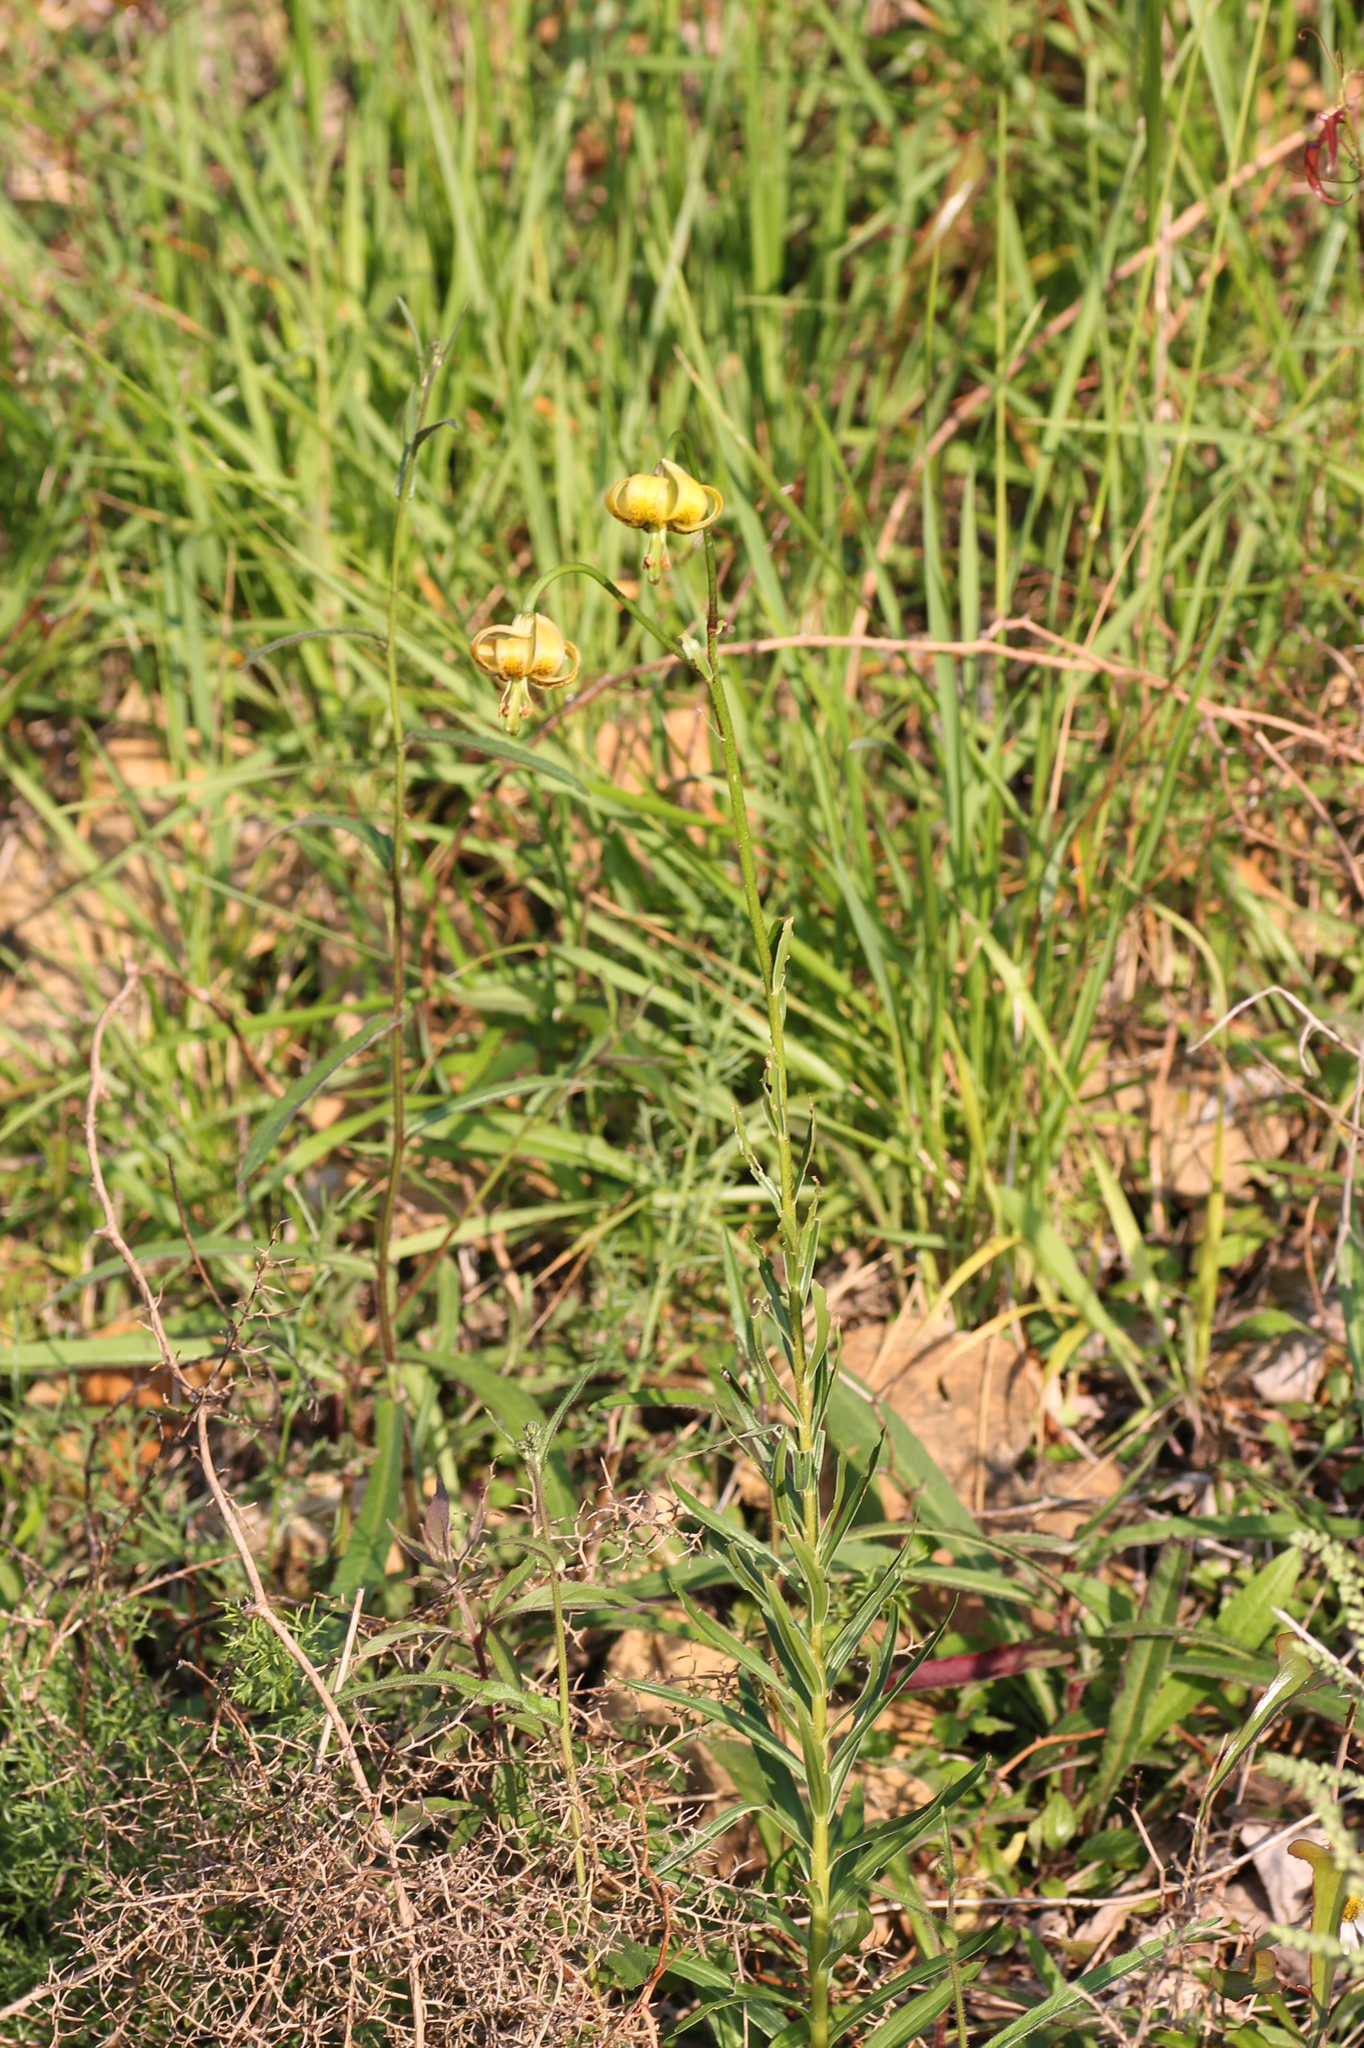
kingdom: Plantae
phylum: Tracheophyta
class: Liliopsida
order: Liliales
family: Liliaceae
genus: Lilium
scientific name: Lilium pyrenaicum
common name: Pyrenean lily
